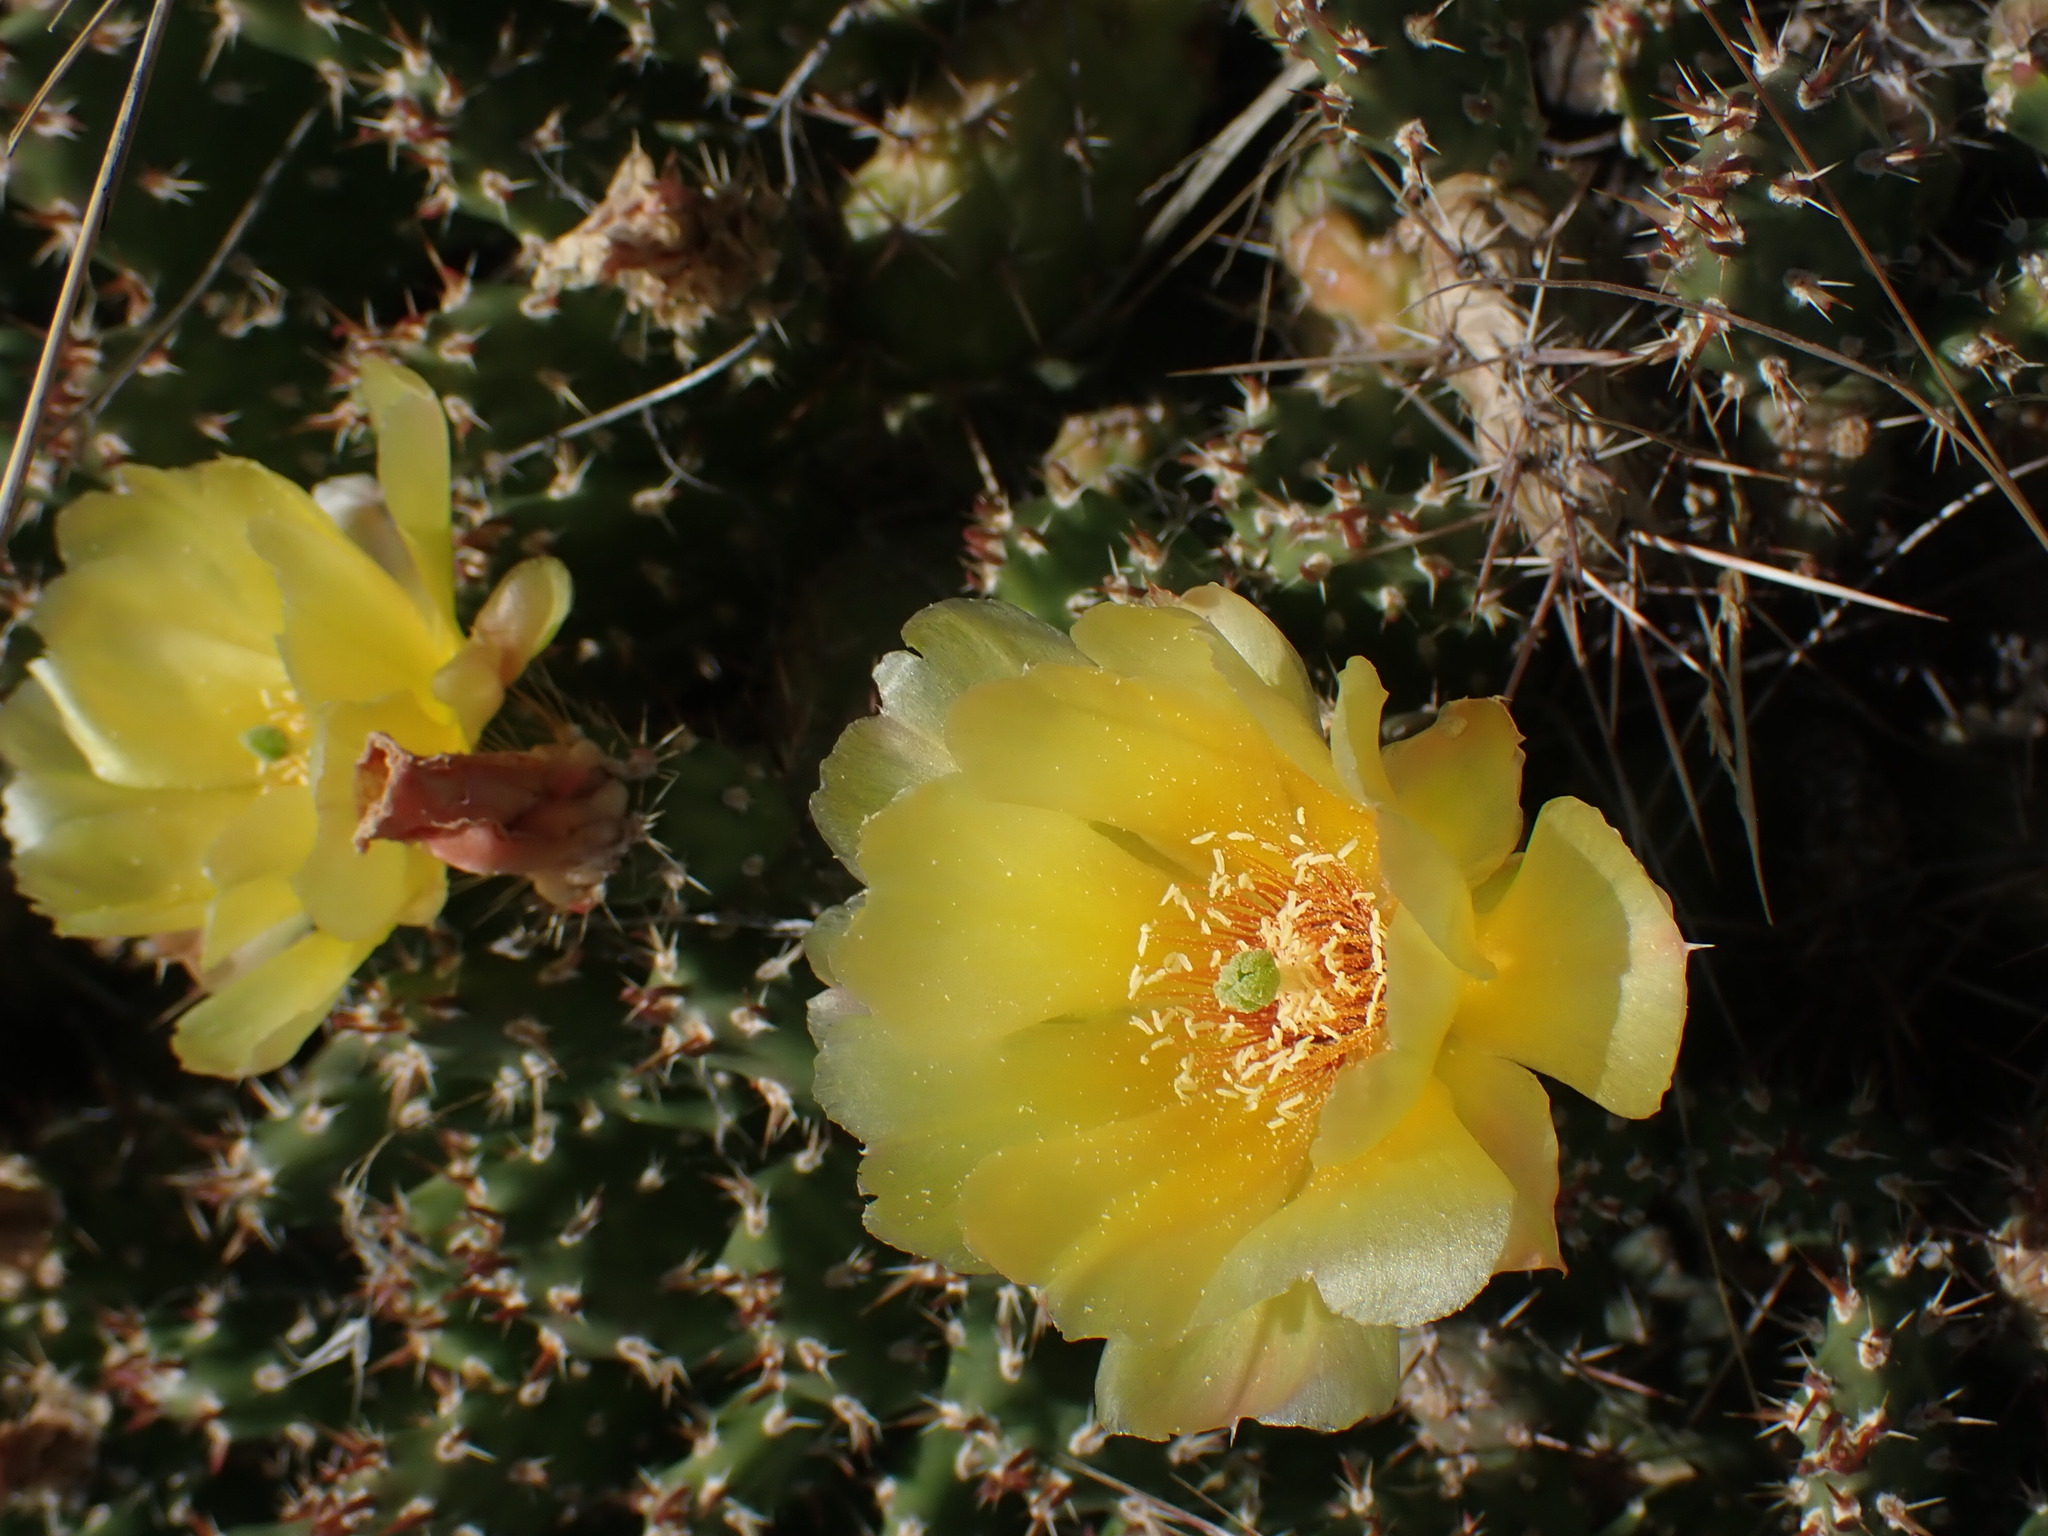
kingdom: Plantae
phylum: Tracheophyta
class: Magnoliopsida
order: Caryophyllales
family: Cactaceae
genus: Opuntia
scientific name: Opuntia fragilis
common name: Brittle cactus
